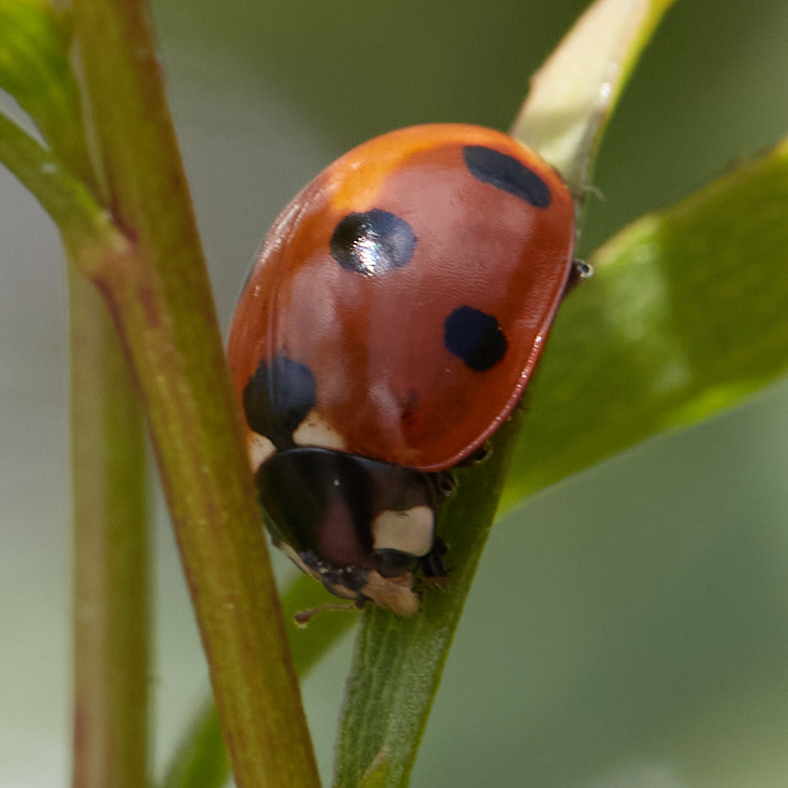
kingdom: Animalia
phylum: Arthropoda
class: Insecta
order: Coleoptera
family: Coccinellidae
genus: Coccinella
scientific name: Coccinella septempunctata
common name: Sevenspotted lady beetle
